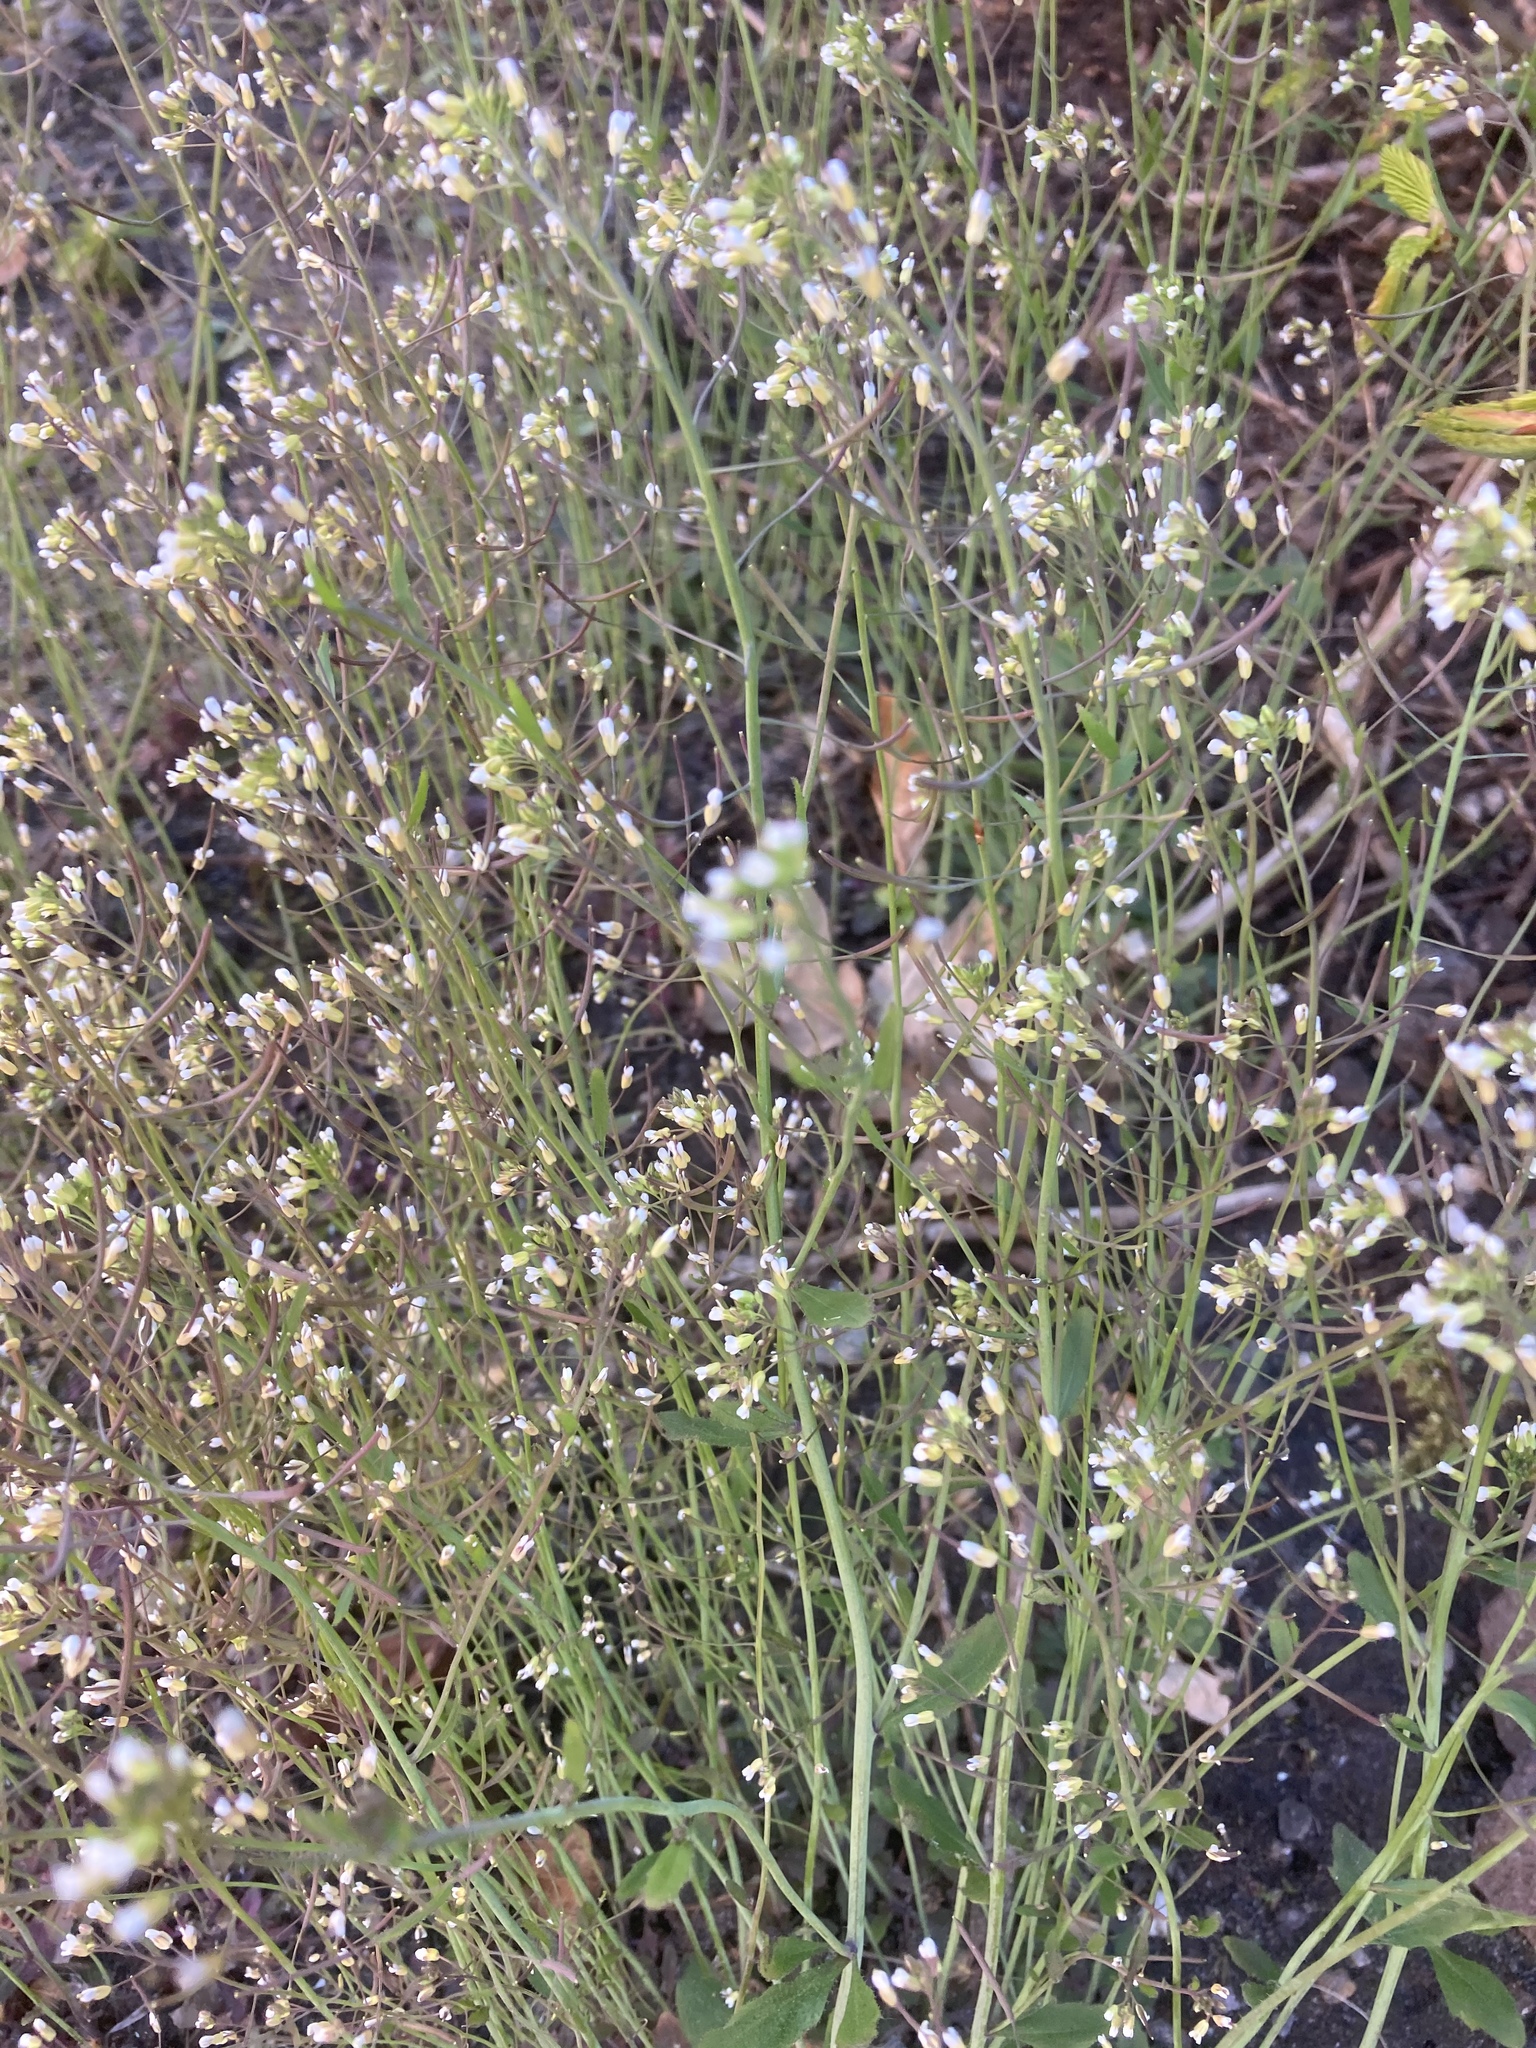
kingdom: Plantae
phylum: Tracheophyta
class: Magnoliopsida
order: Brassicales
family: Brassicaceae
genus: Arabidopsis
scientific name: Arabidopsis thaliana
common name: Thale cress
